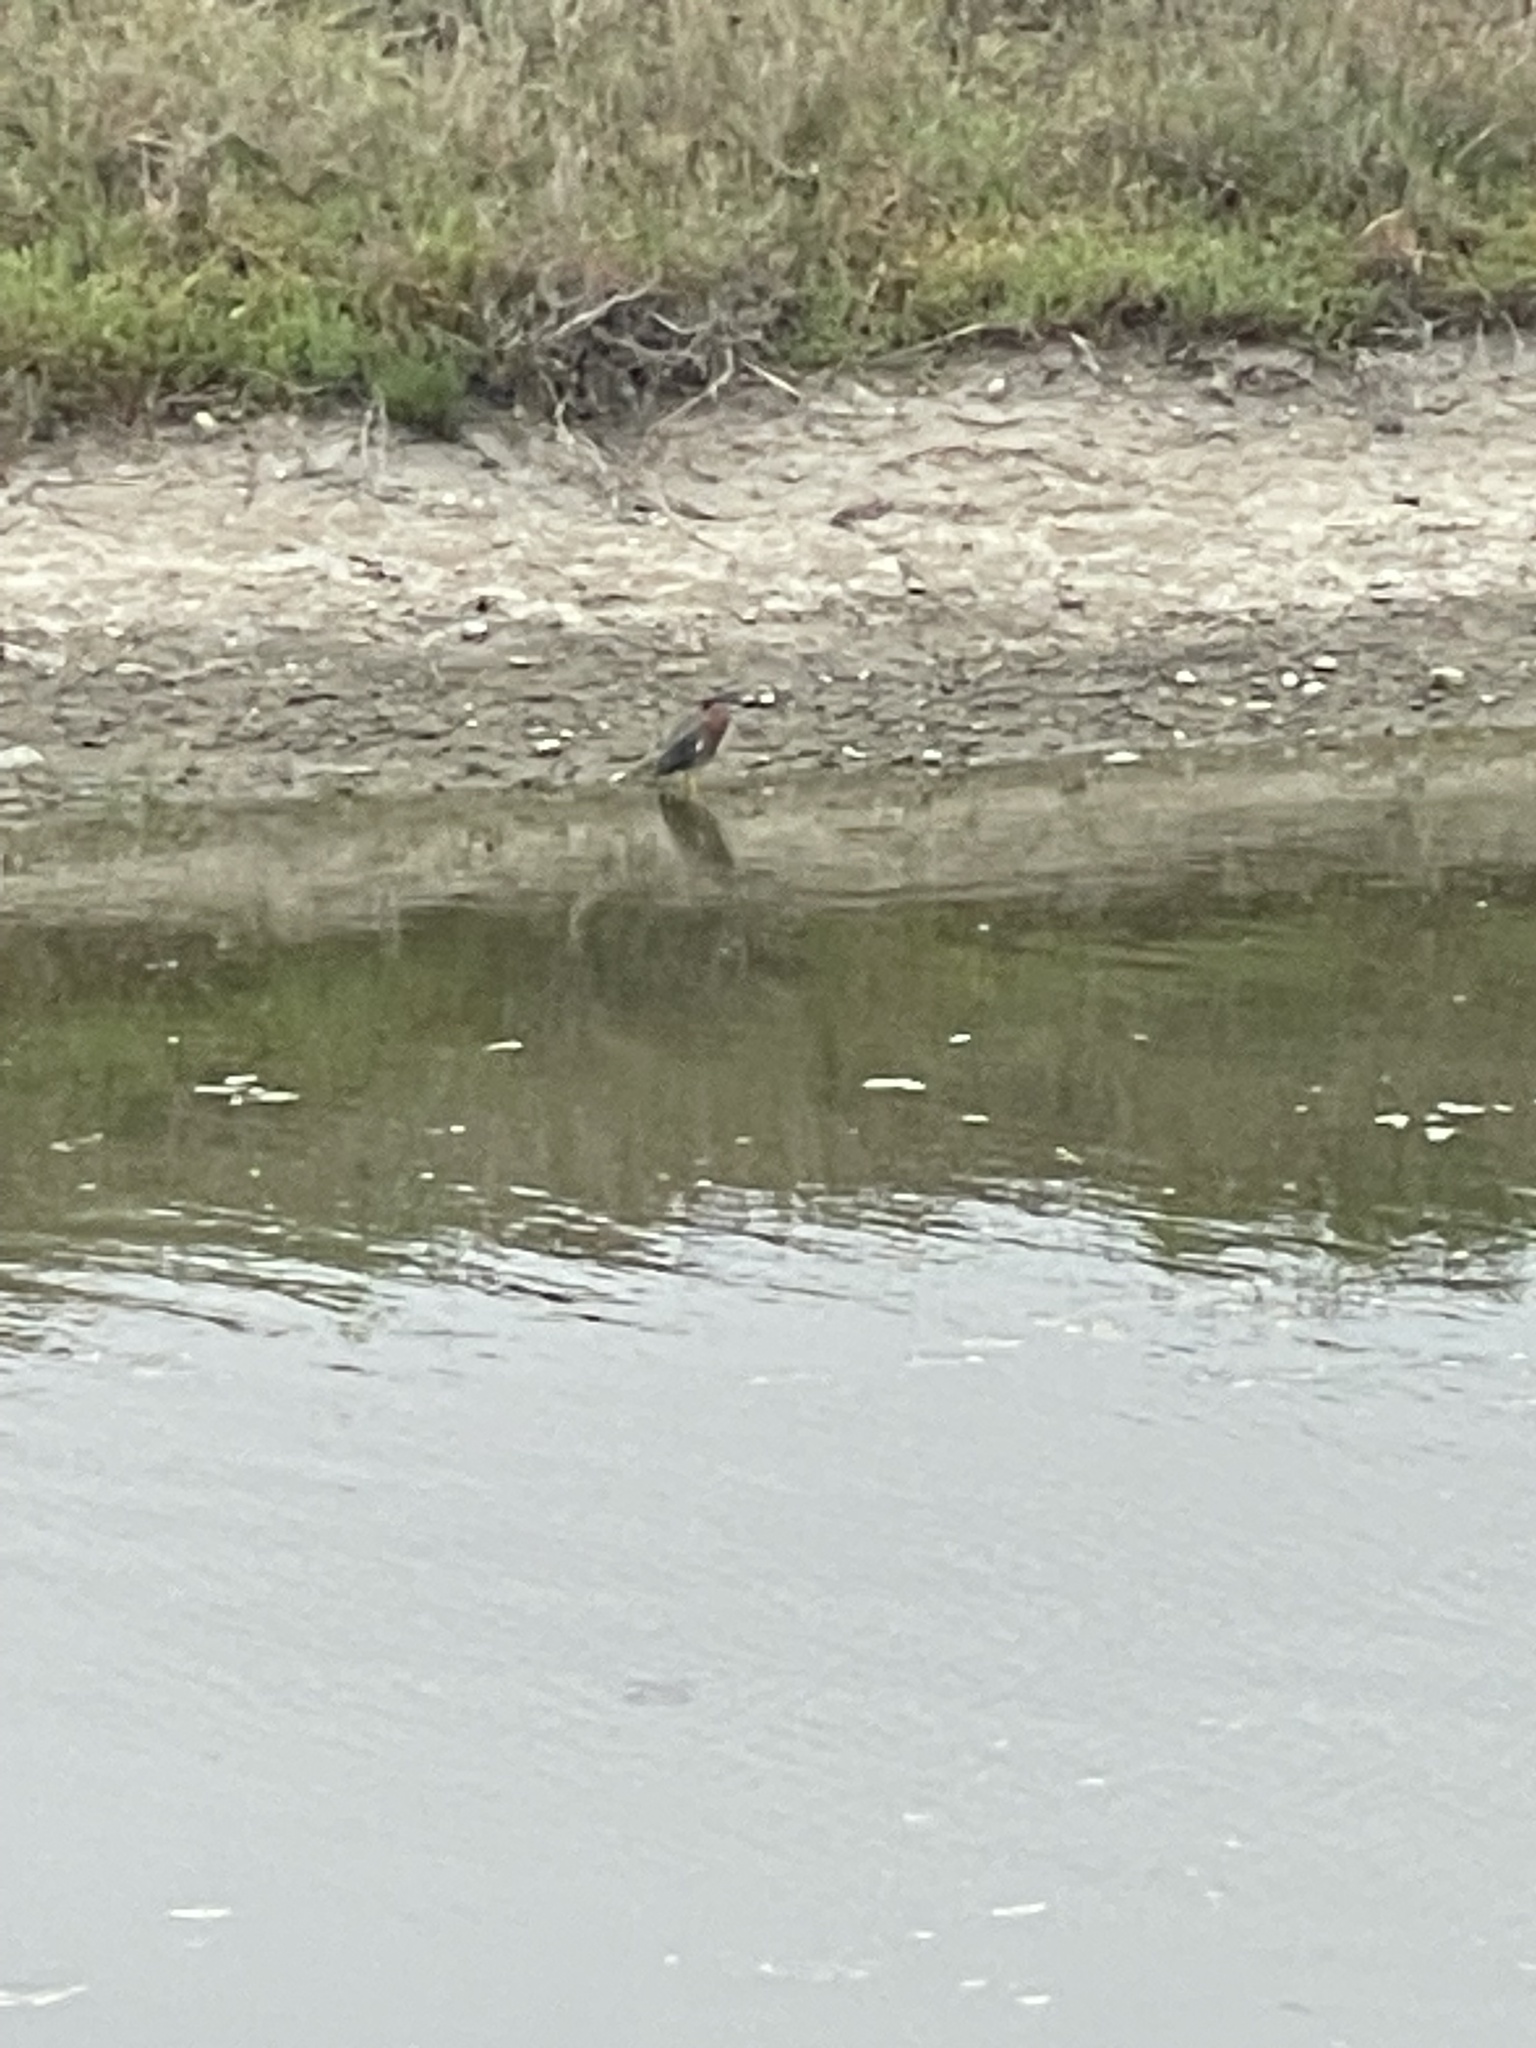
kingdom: Animalia
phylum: Chordata
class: Aves
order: Pelecaniformes
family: Ardeidae
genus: Butorides
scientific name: Butorides virescens
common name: Green heron
